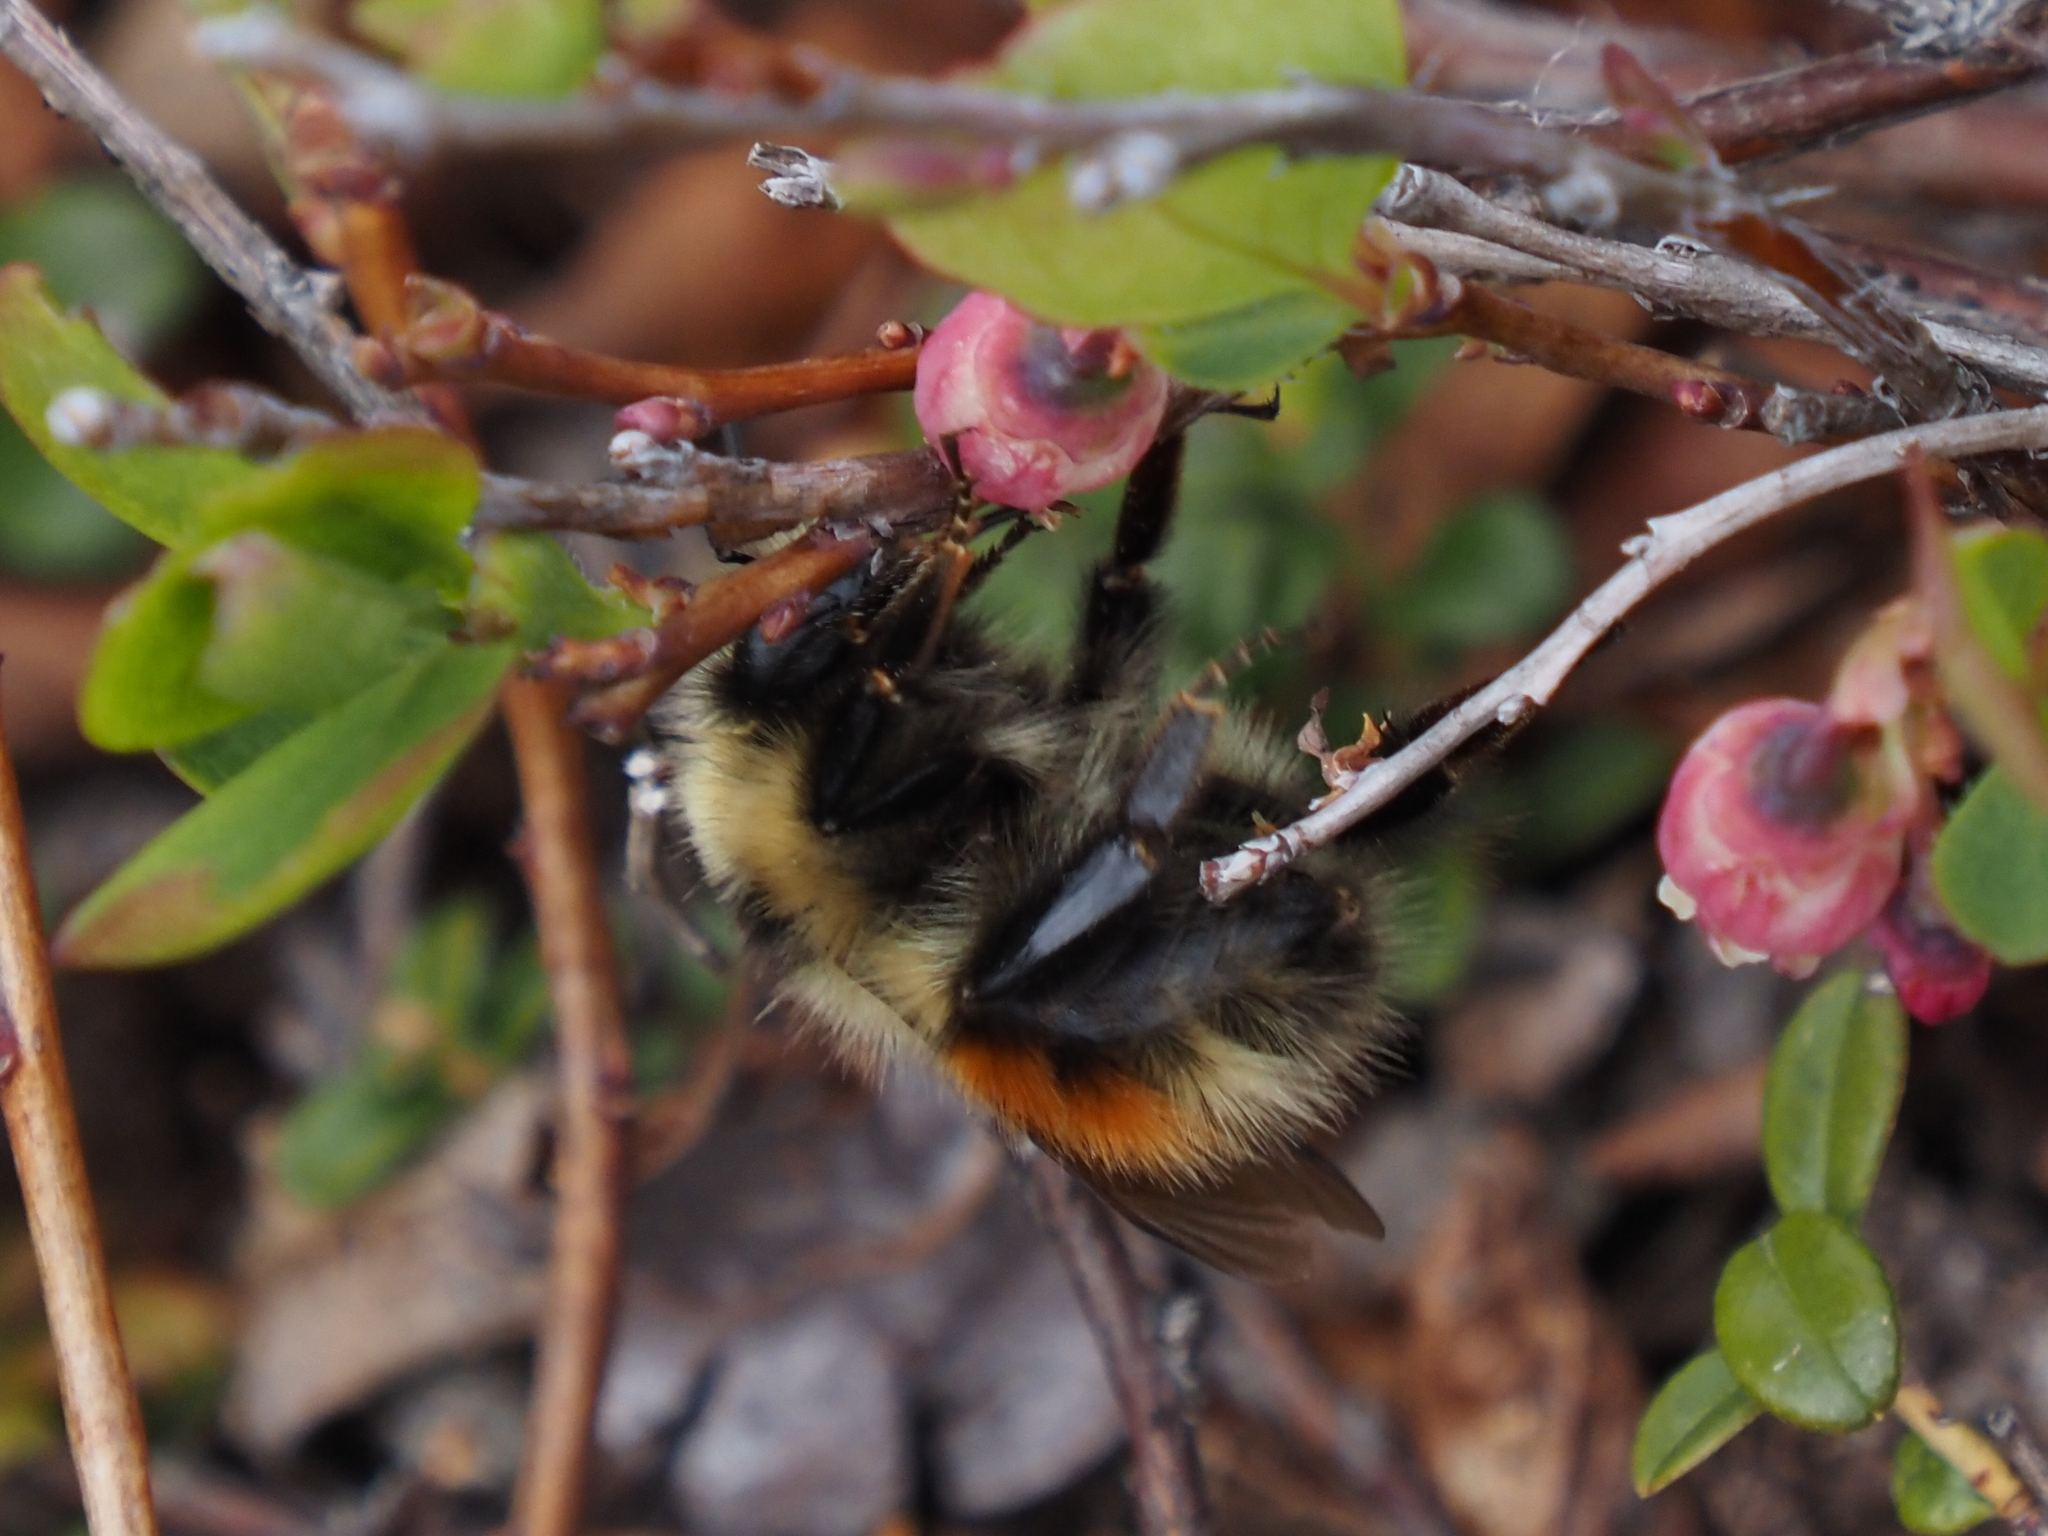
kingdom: Animalia
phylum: Arthropoda
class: Insecta
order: Hymenoptera
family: Apidae
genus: Bombus
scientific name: Bombus sylvicola
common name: Forest bumble bee
